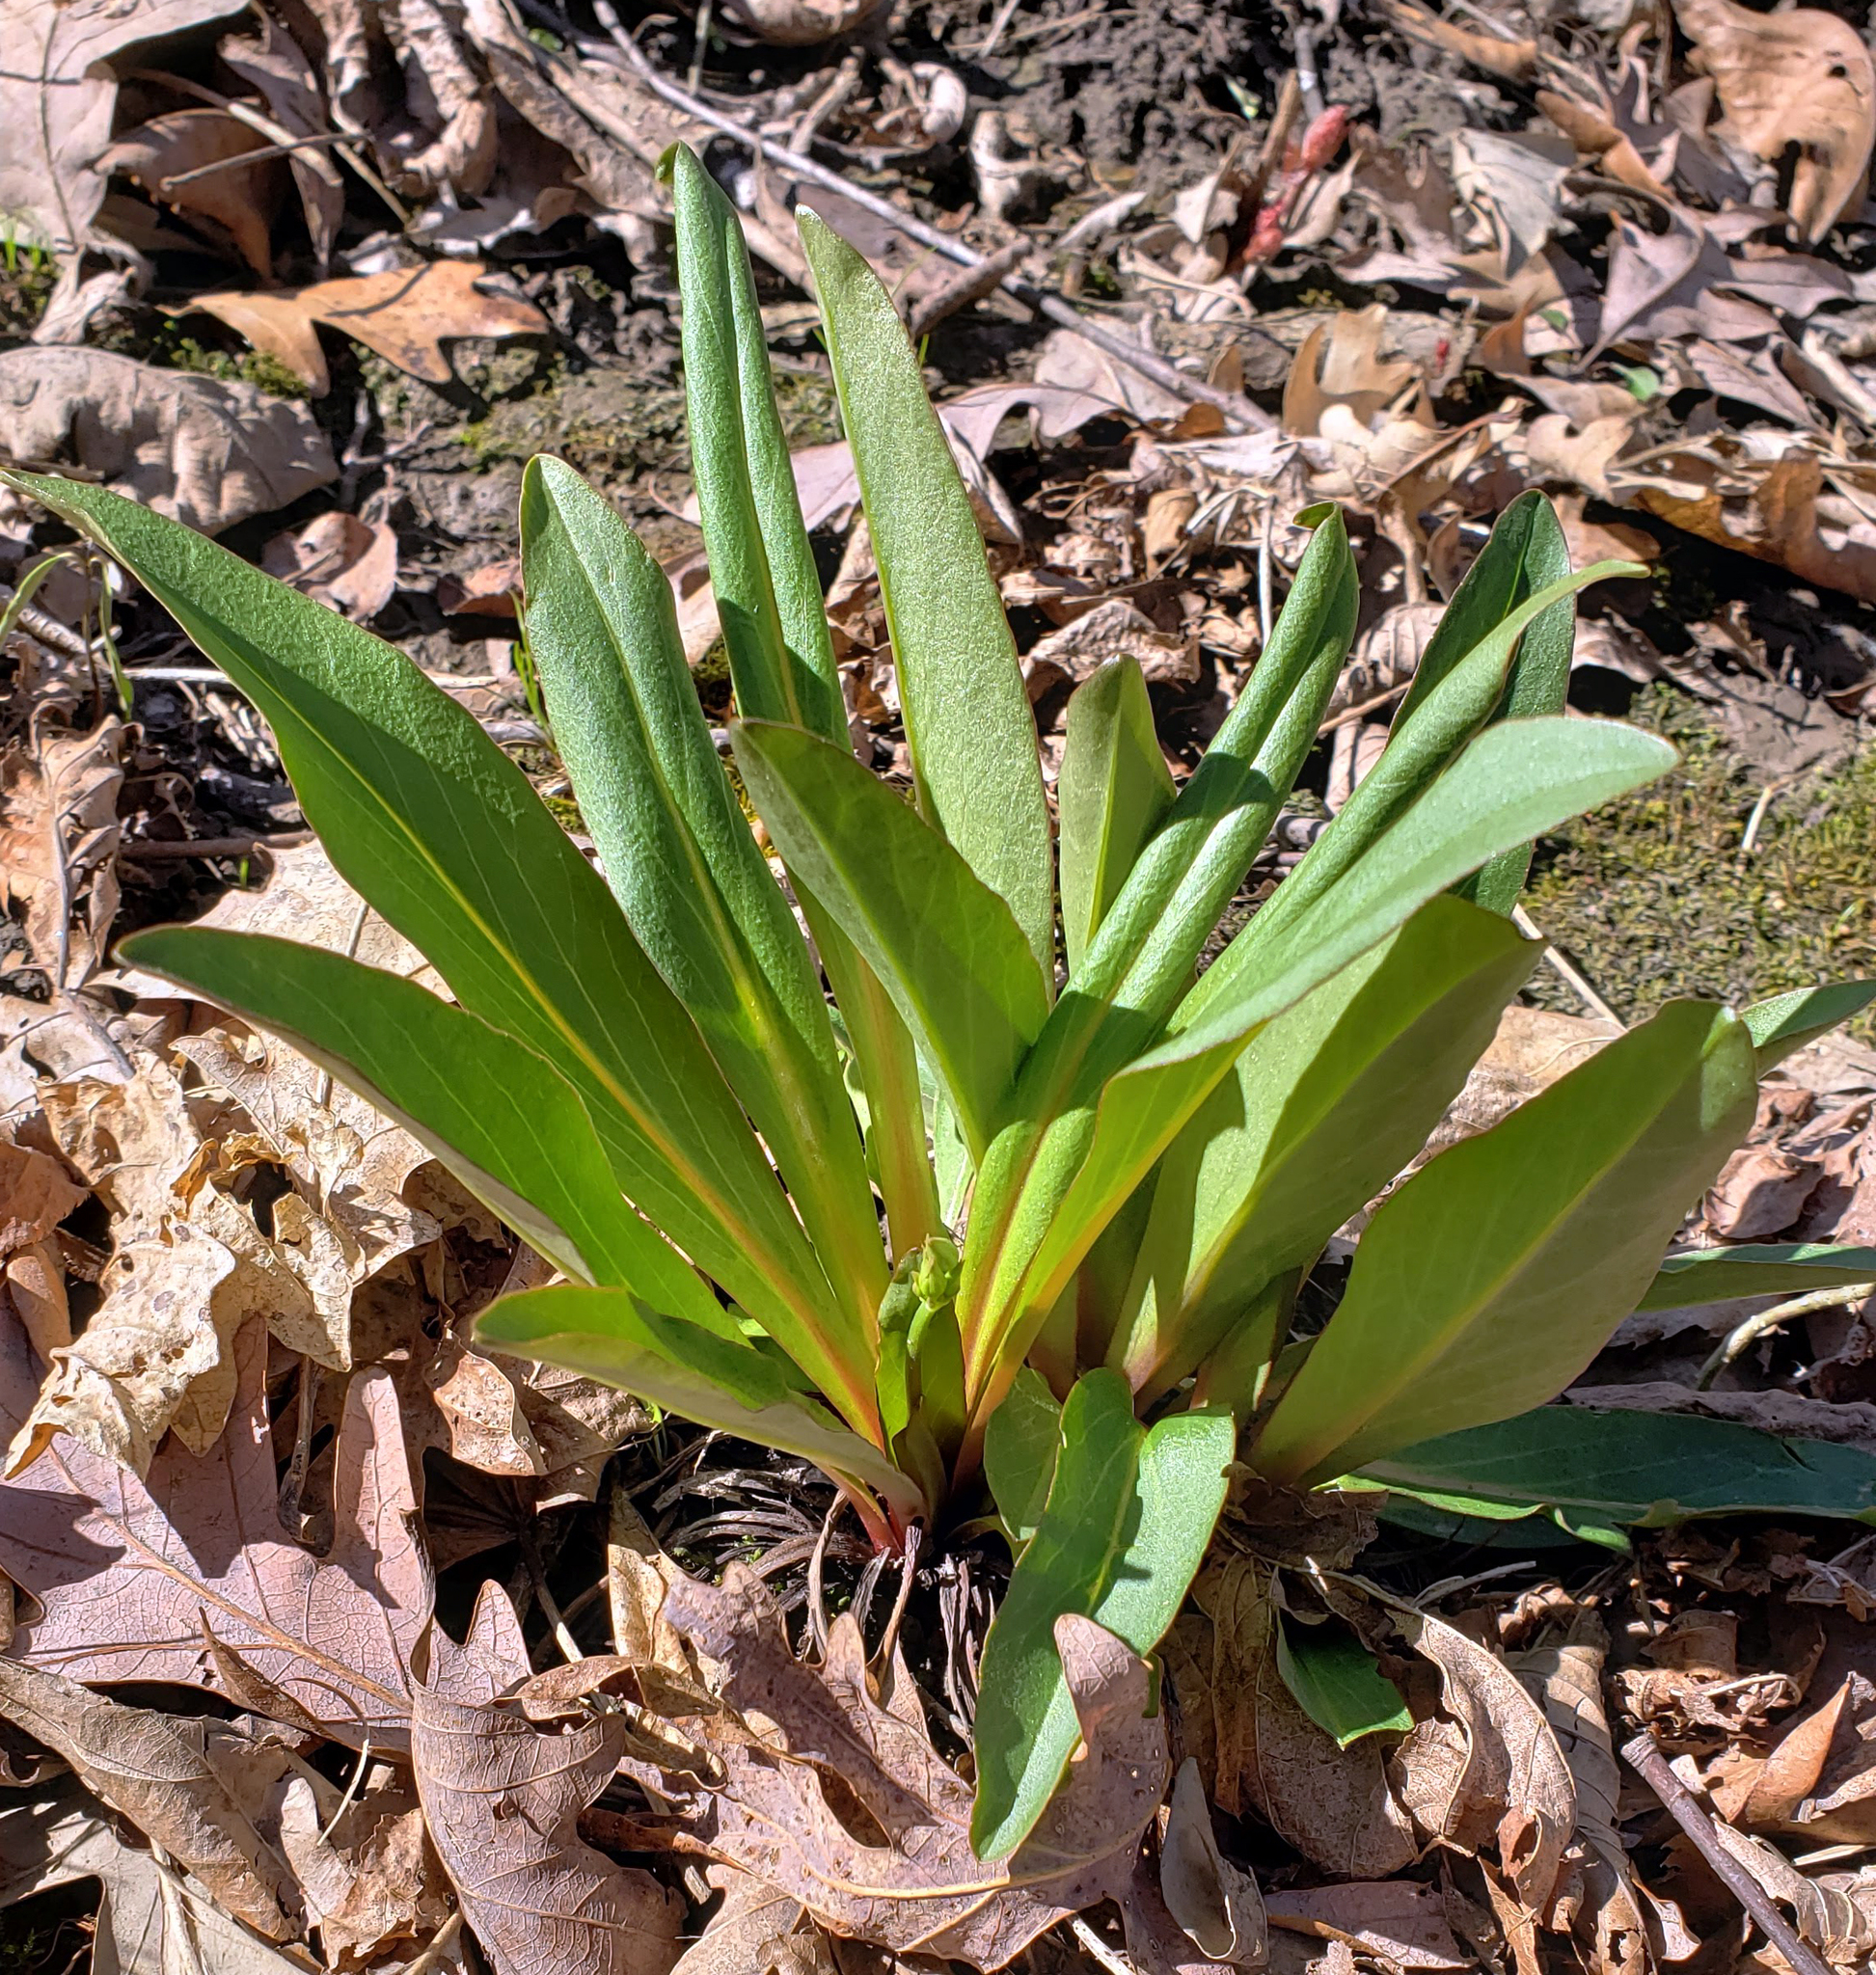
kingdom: Plantae
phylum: Tracheophyta
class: Magnoliopsida
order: Ericales
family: Primulaceae
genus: Dodecatheon
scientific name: Dodecatheon meadia
